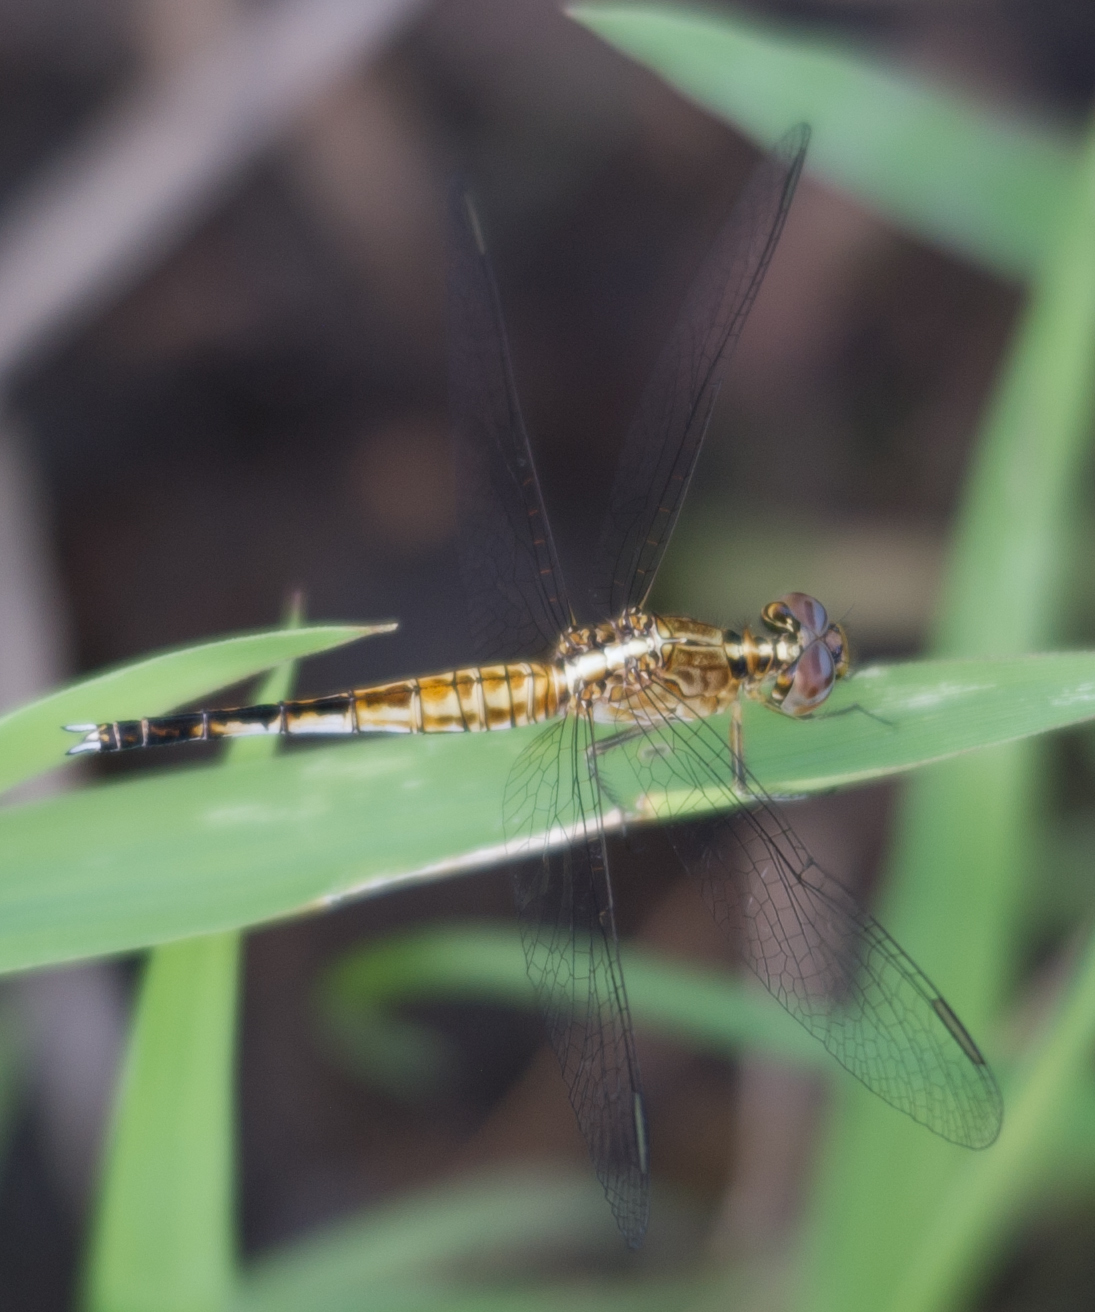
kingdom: Animalia
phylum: Arthropoda
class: Insecta
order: Odonata
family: Libellulidae
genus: Acisoma
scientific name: Acisoma inflatum
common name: Stout pintail
